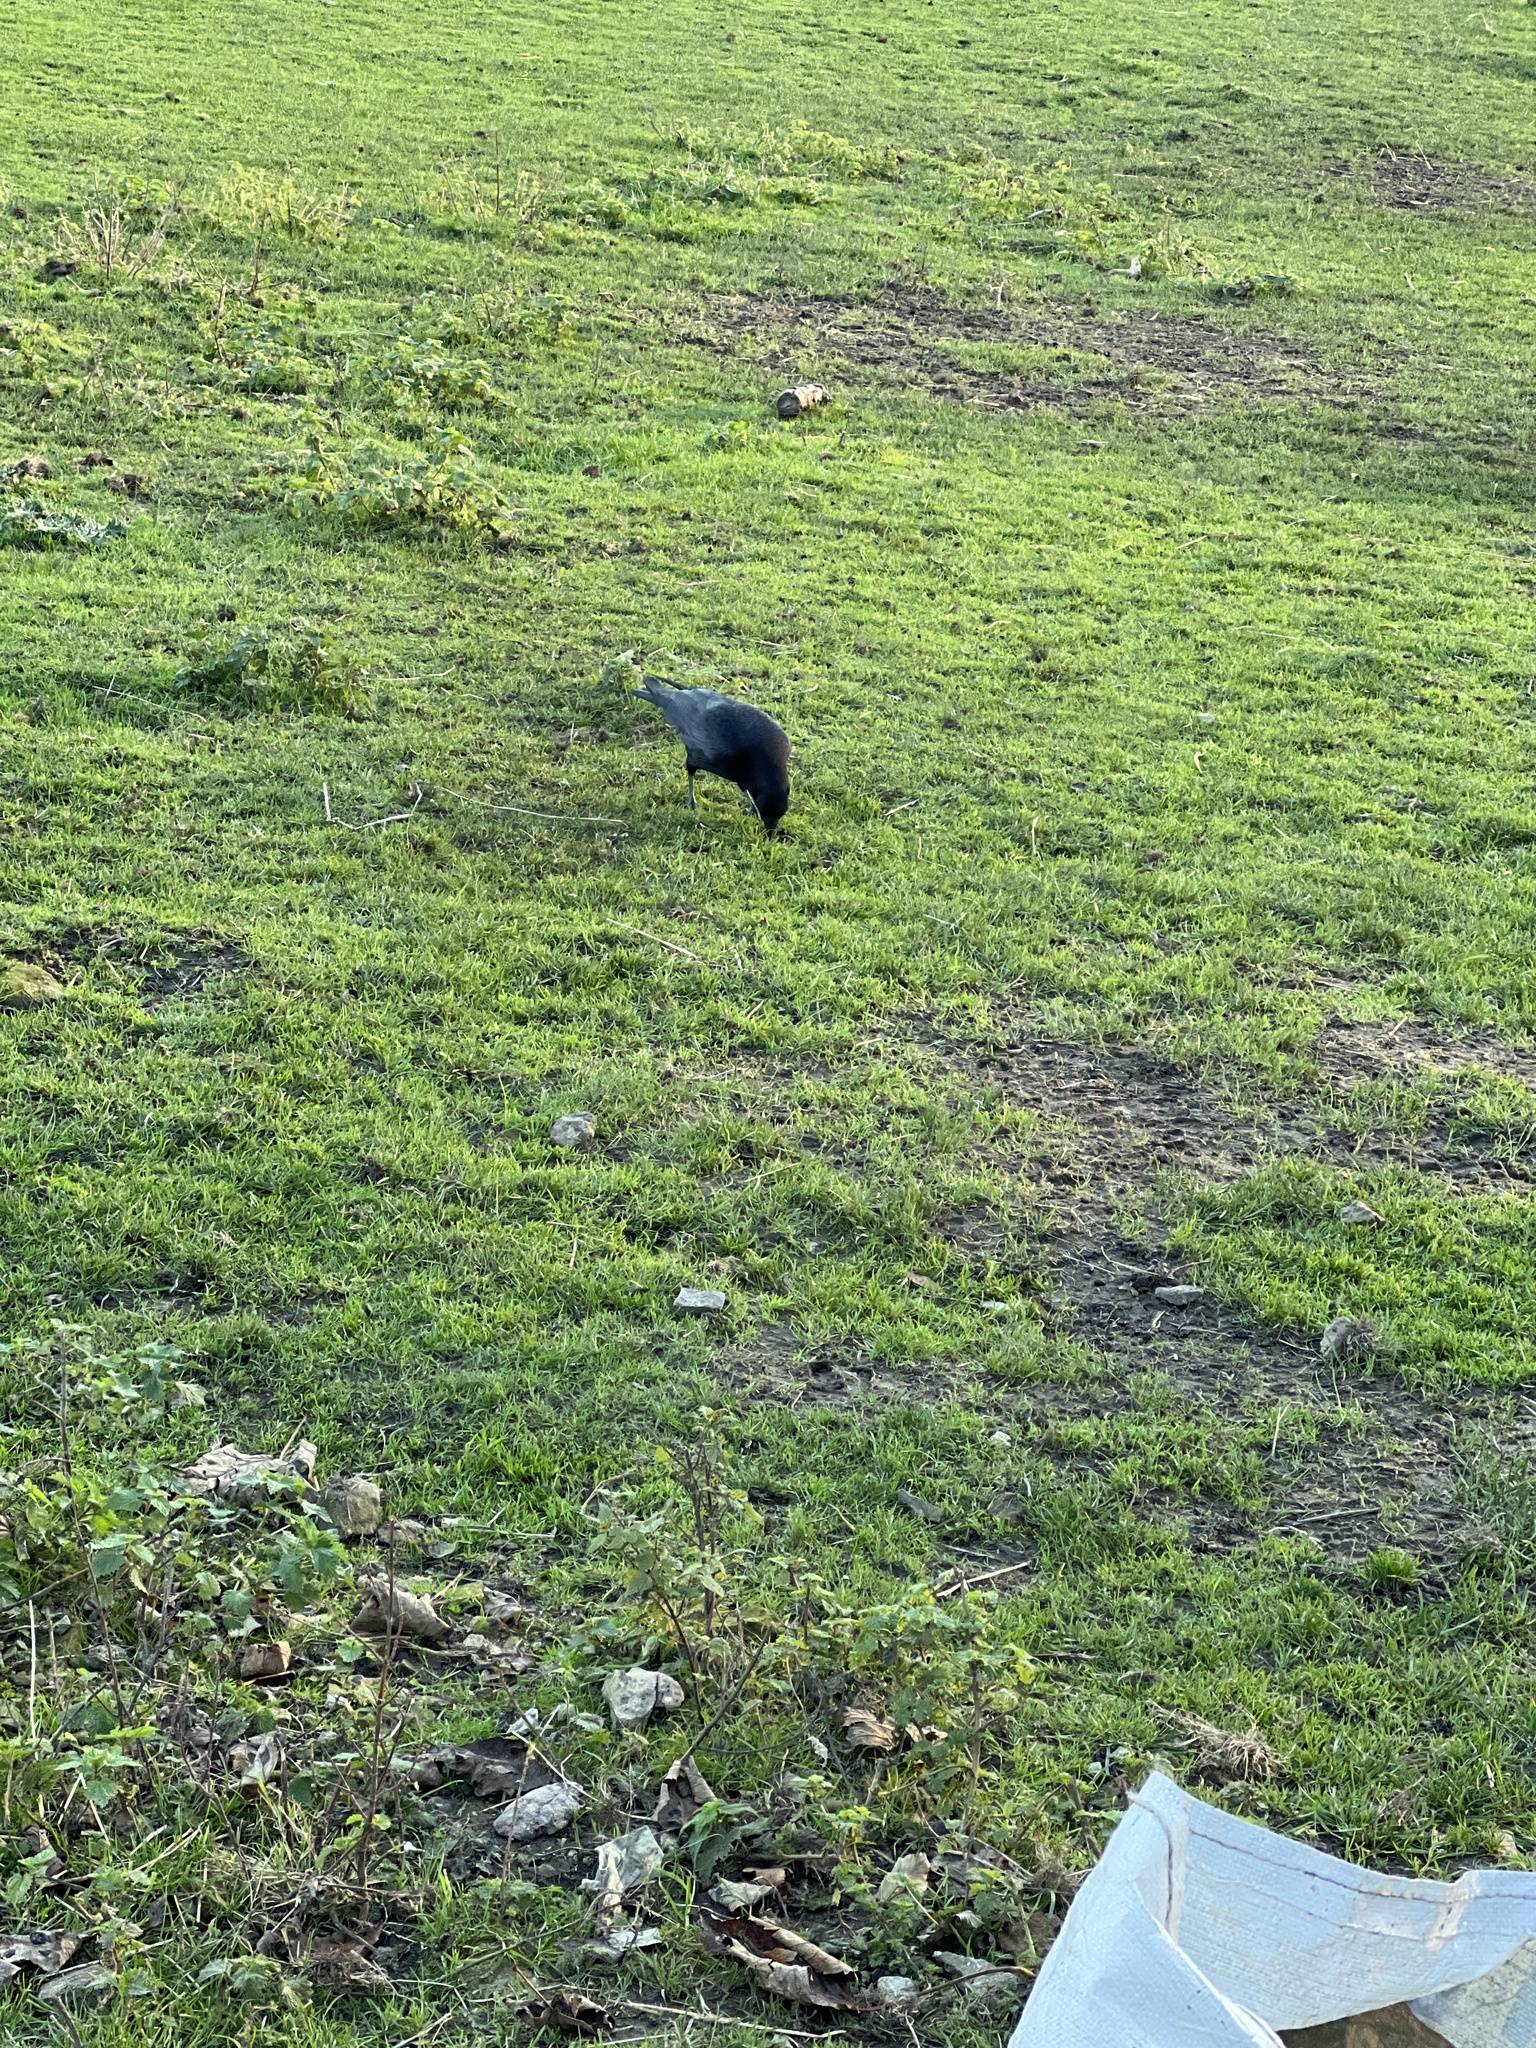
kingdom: Animalia
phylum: Chordata
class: Aves
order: Passeriformes
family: Corvidae
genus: Corvus
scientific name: Corvus corone
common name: Carrion crow
